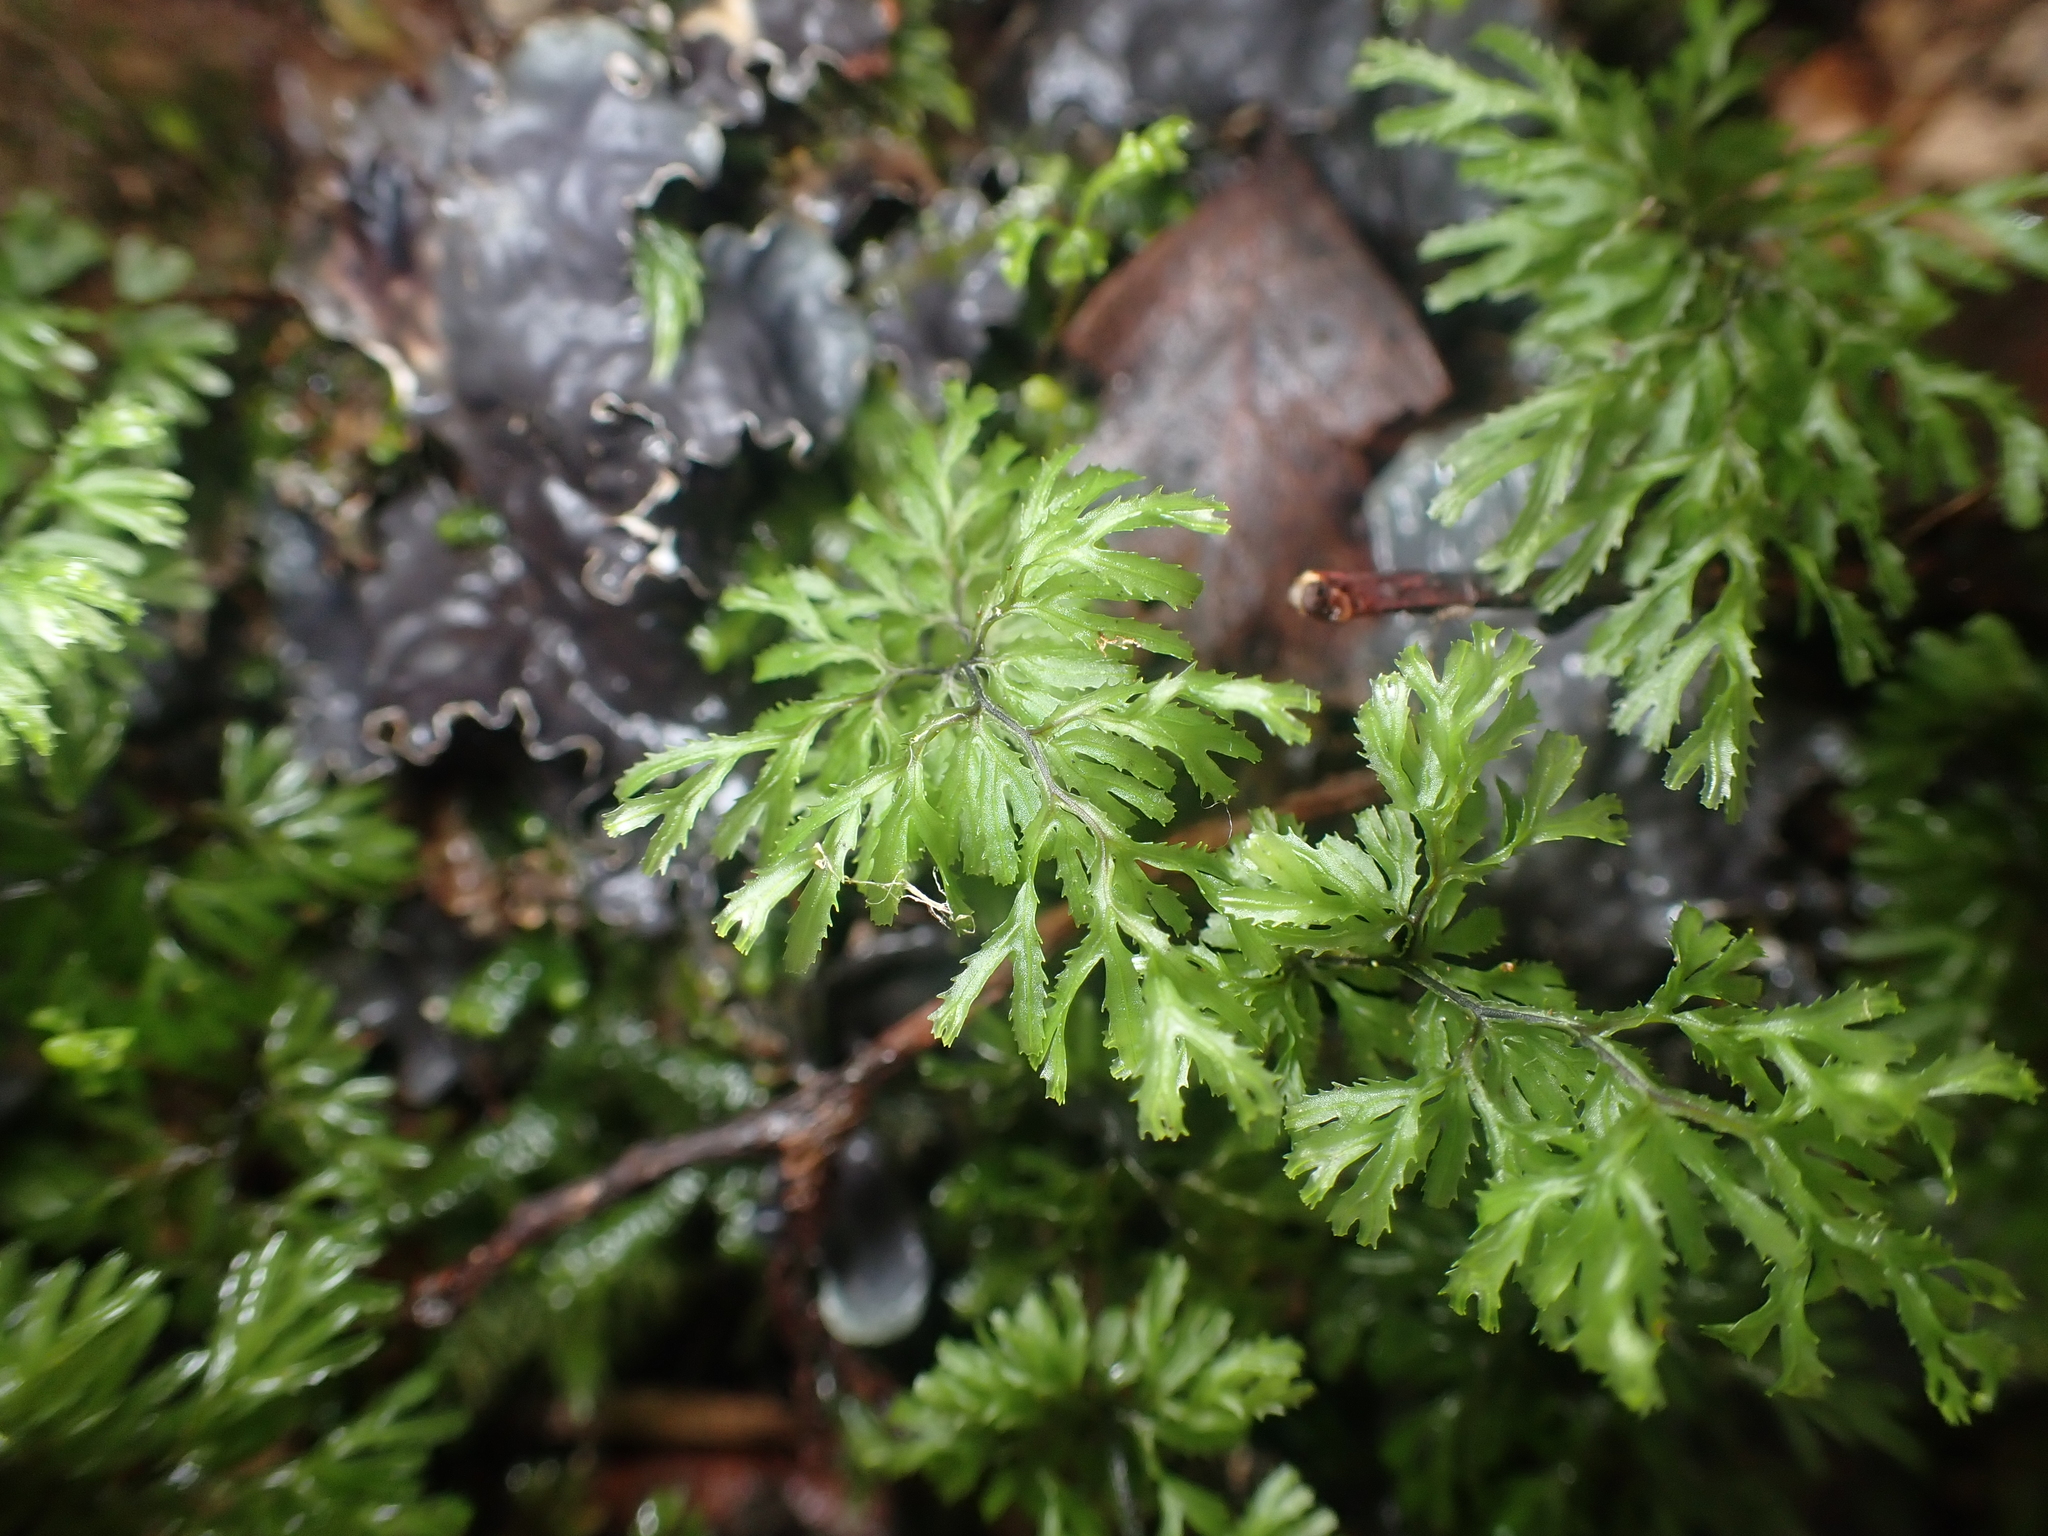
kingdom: Plantae
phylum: Tracheophyta
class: Polypodiopsida
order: Hymenophyllales
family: Hymenophyllaceae
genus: Hymenophyllum
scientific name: Hymenophyllum multifidum
